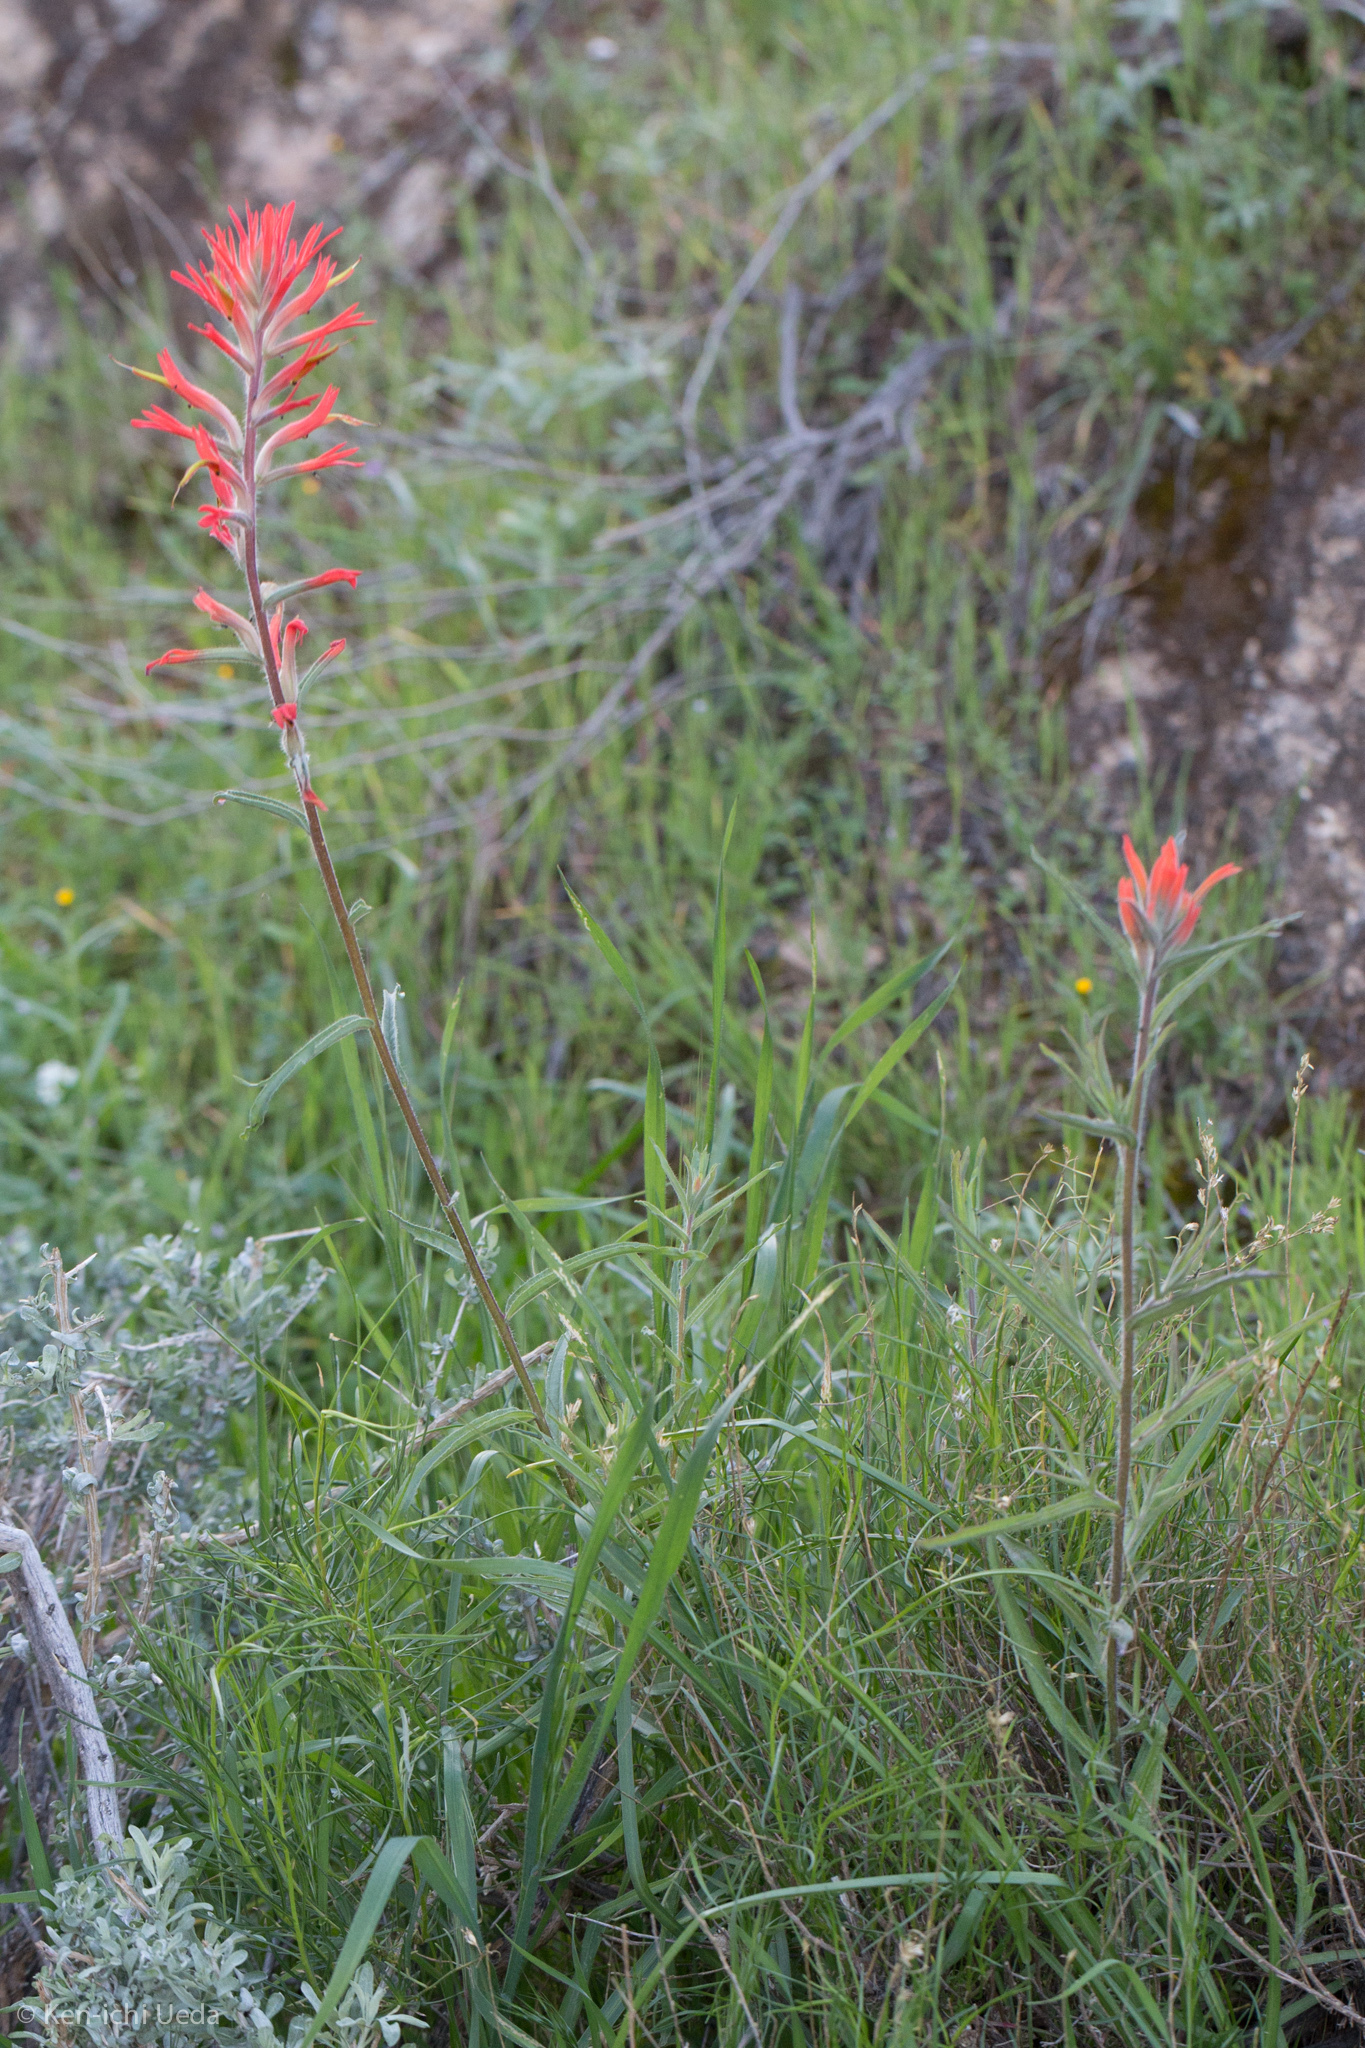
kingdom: Plantae
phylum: Tracheophyta
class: Magnoliopsida
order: Lamiales
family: Orobanchaceae
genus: Castilleja
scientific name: Castilleja subinclusa
